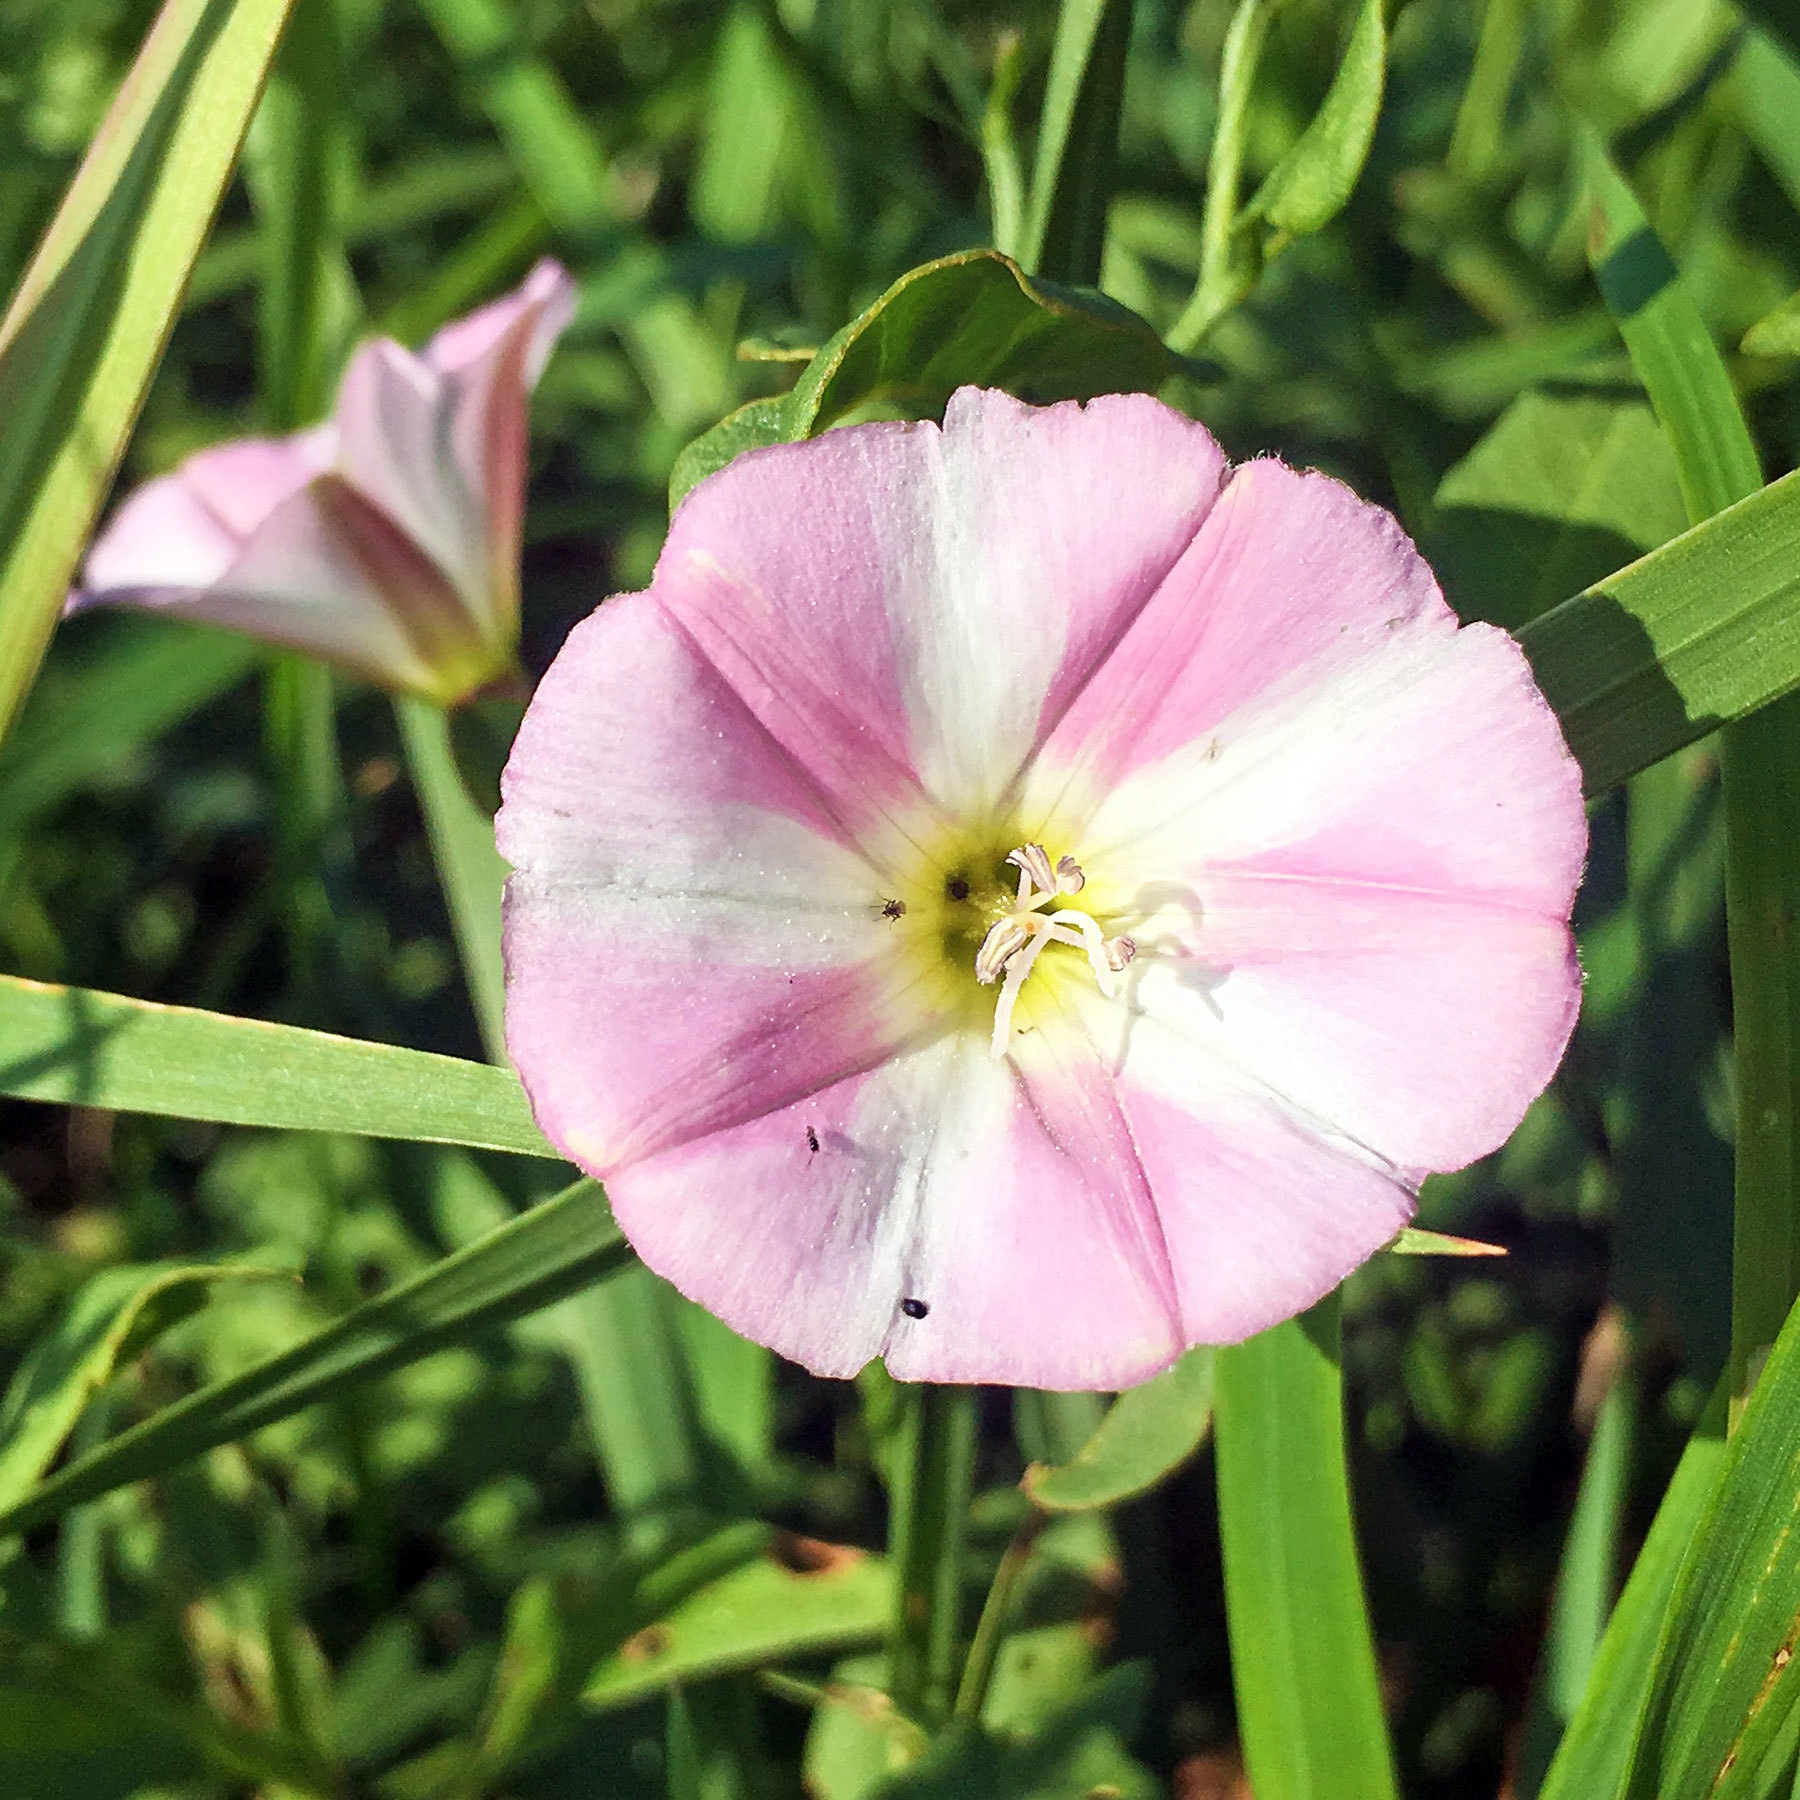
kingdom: Plantae
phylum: Tracheophyta
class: Magnoliopsida
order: Solanales
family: Convolvulaceae
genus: Convolvulus
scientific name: Convolvulus arvensis
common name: Field bindweed
